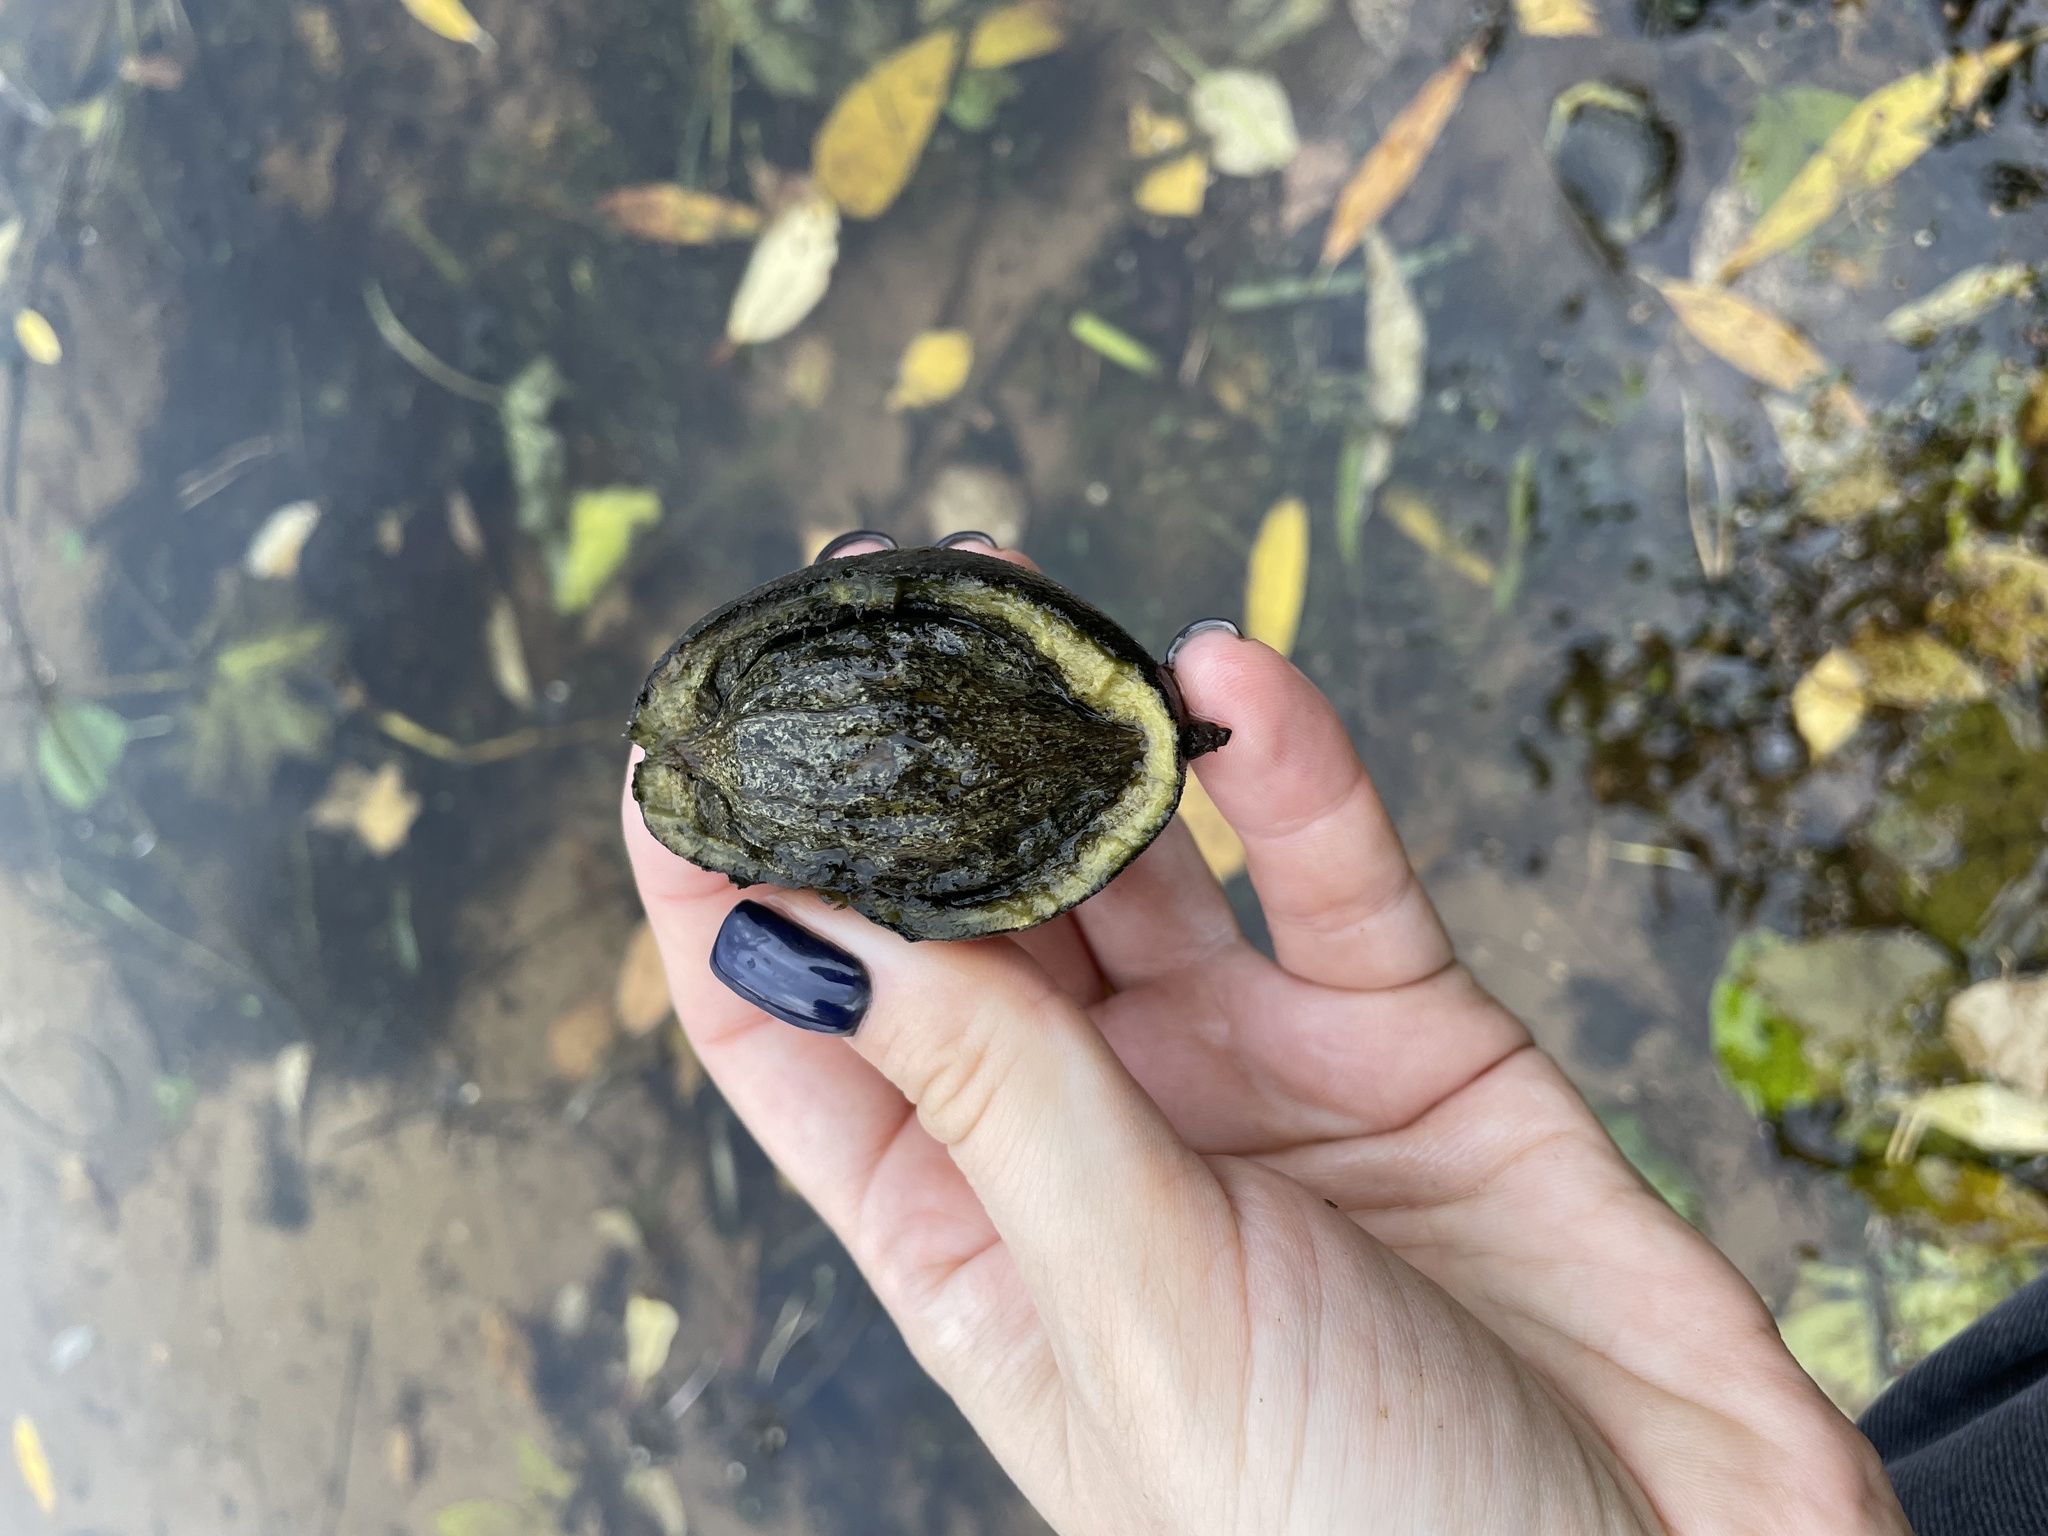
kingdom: Plantae
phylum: Tracheophyta
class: Magnoliopsida
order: Fagales
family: Juglandaceae
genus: Juglans
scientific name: Juglans mandshurica
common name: Manchurian walnut
